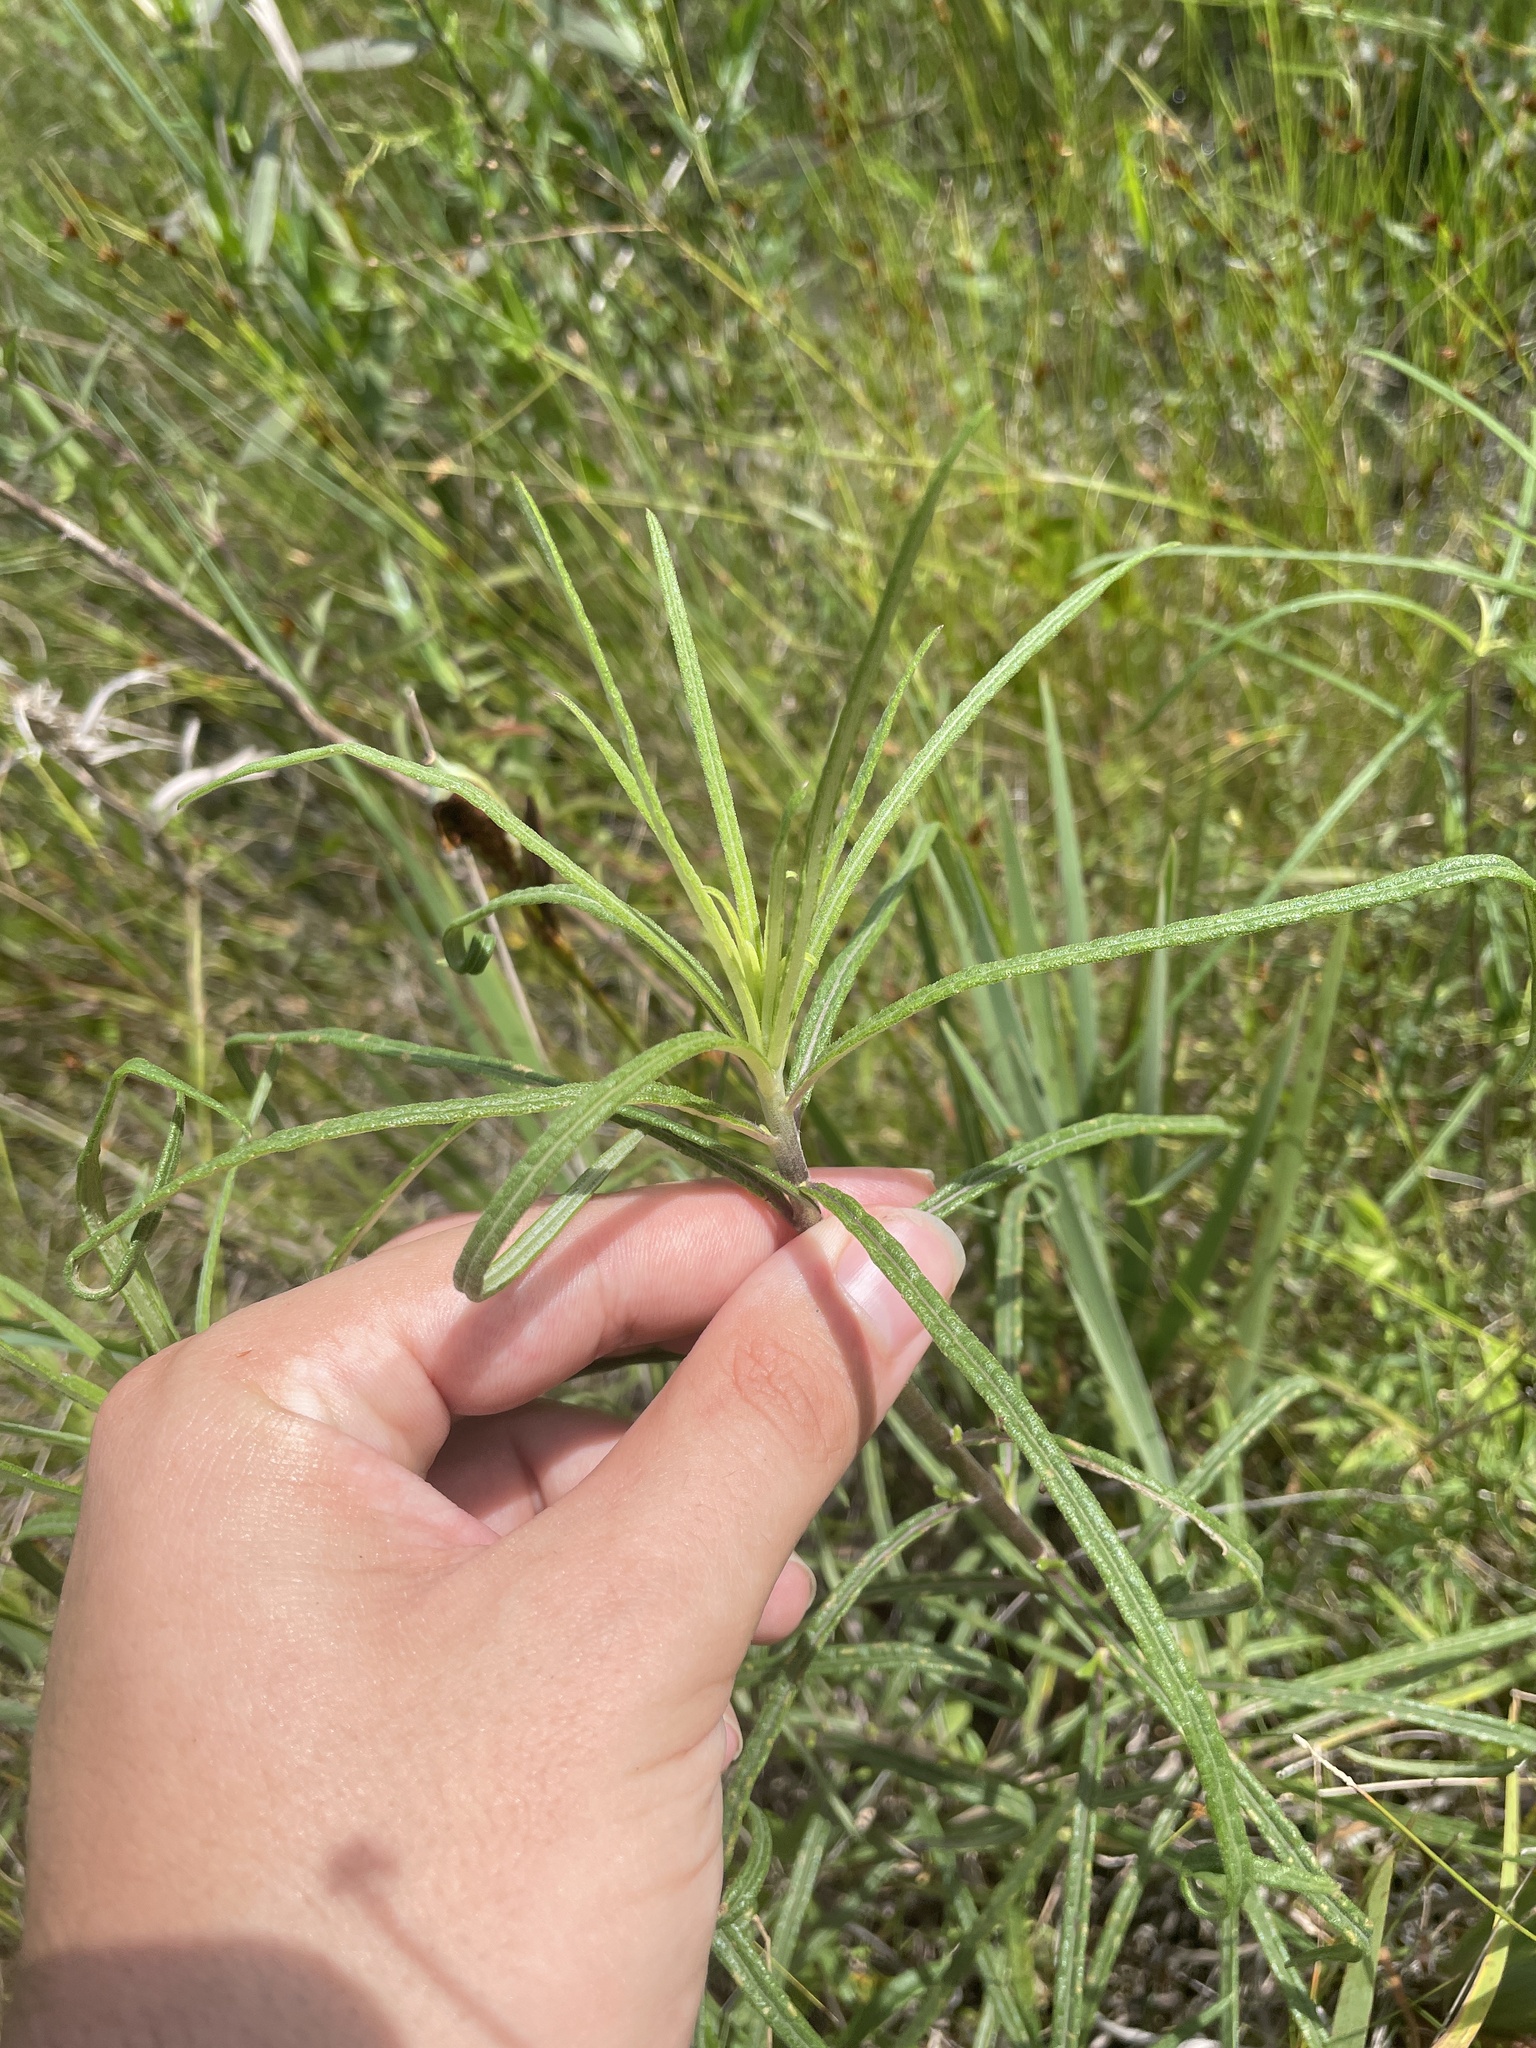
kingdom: Plantae
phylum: Tracheophyta
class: Magnoliopsida
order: Asterales
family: Asteraceae
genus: Helianthus
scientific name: Helianthus angustifolius
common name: Swamp sunflower
